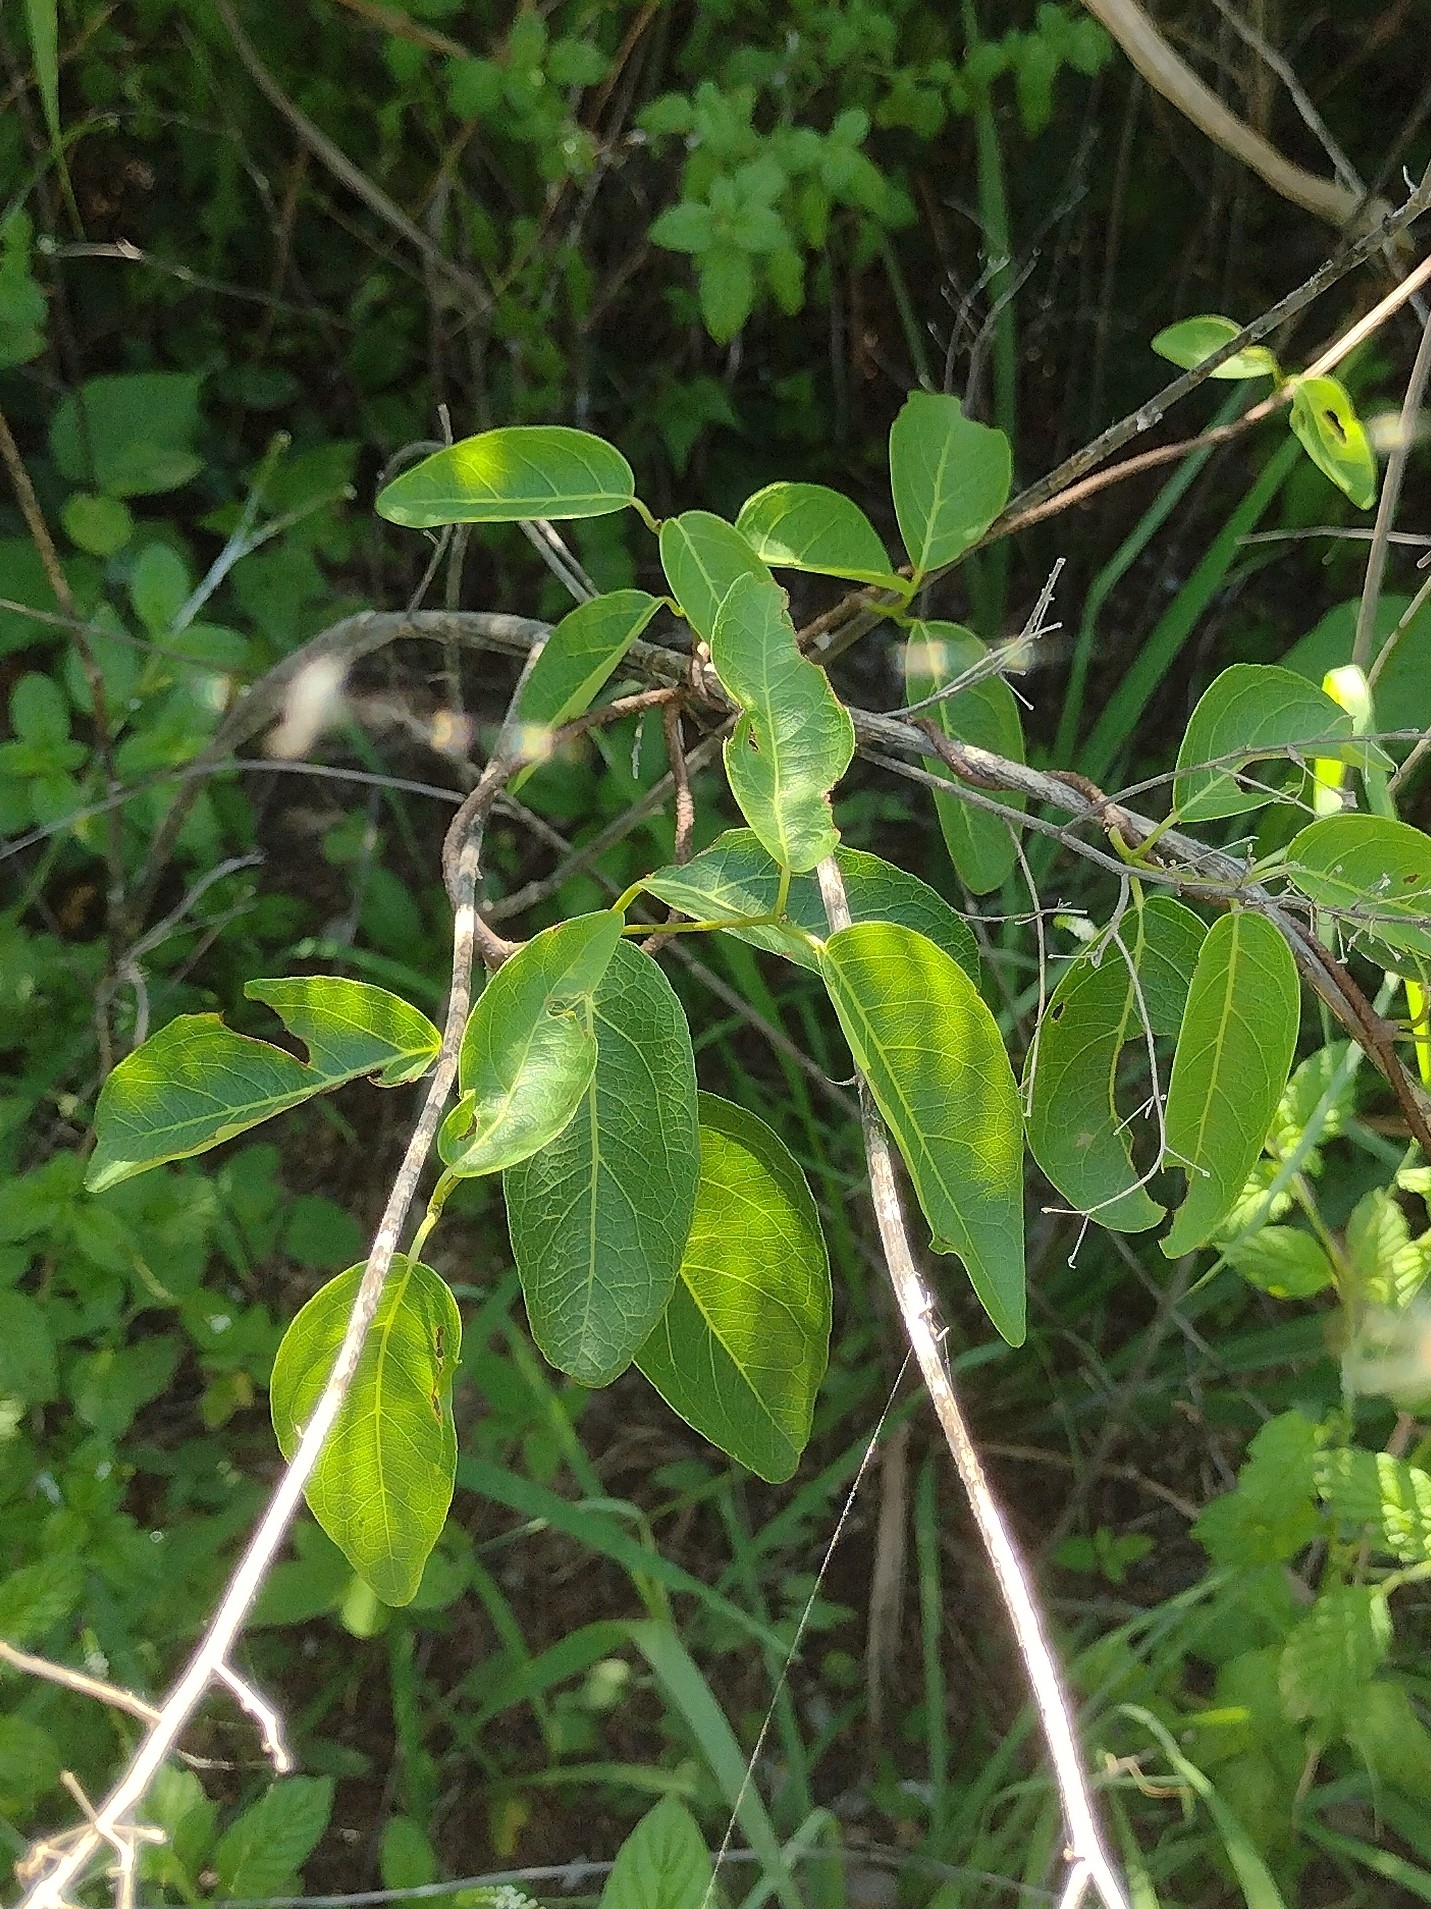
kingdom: Plantae
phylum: Tracheophyta
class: Magnoliopsida
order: Malpighiales
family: Malpighiaceae
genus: Stigmaphyllon
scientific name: Stigmaphyllon emarginatum
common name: Monarch amazonvine
